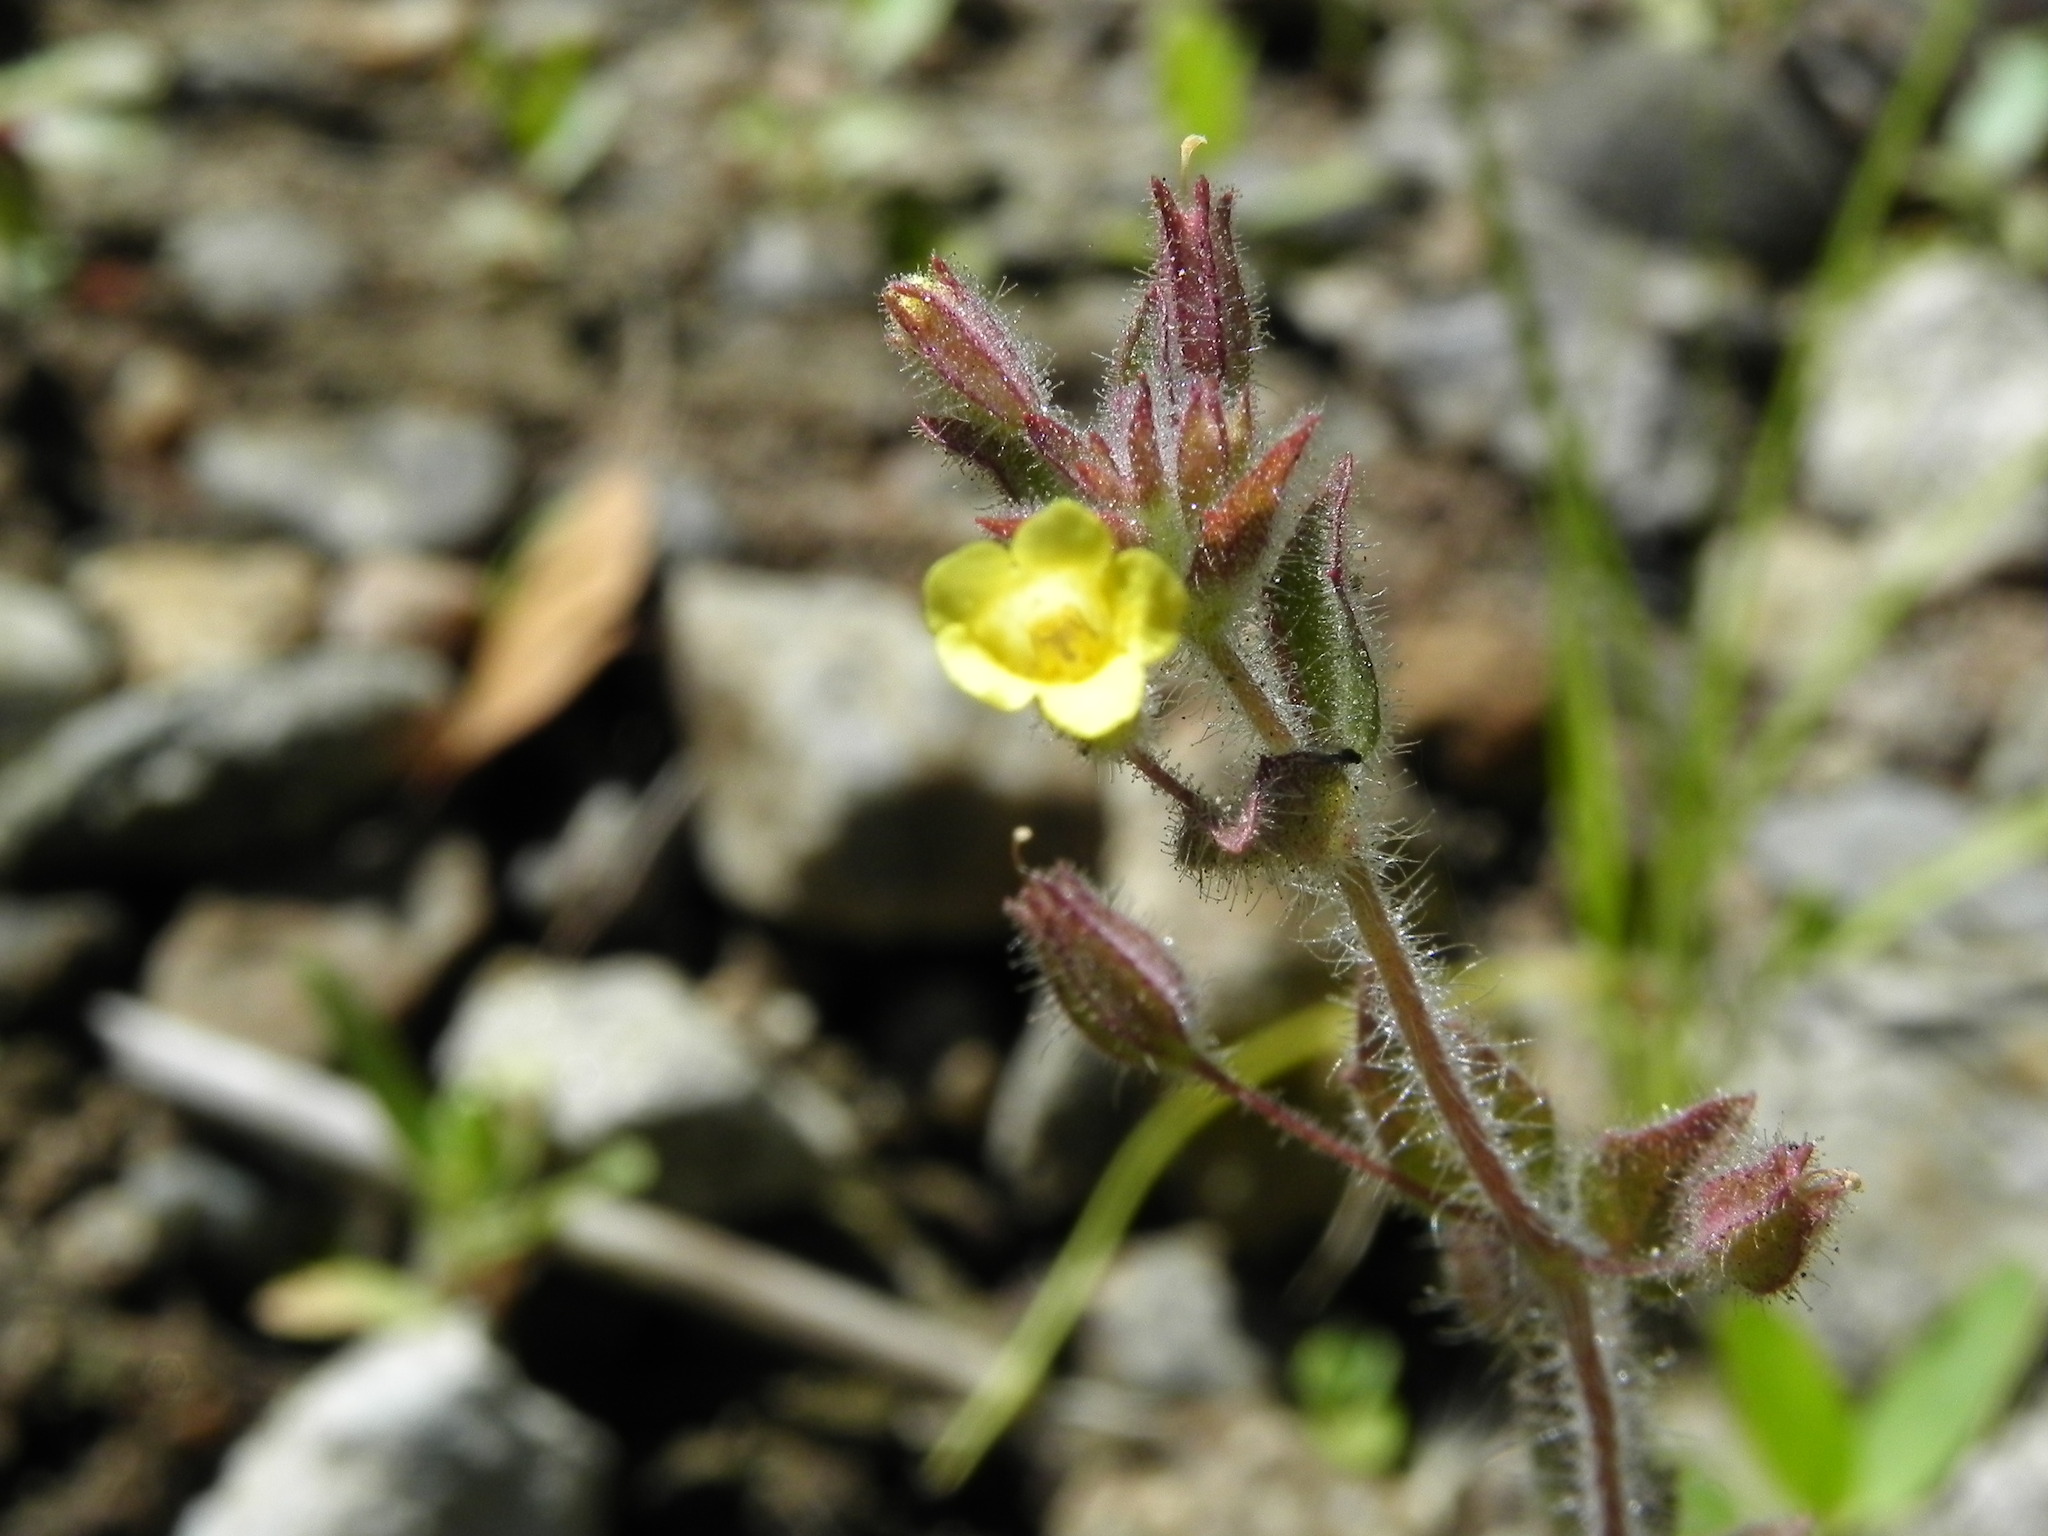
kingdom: Plantae
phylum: Tracheophyta
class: Magnoliopsida
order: Lamiales
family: Phrymaceae
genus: Erythranthe
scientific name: Erythranthe floribunda
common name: Floriferous monkeyflower
